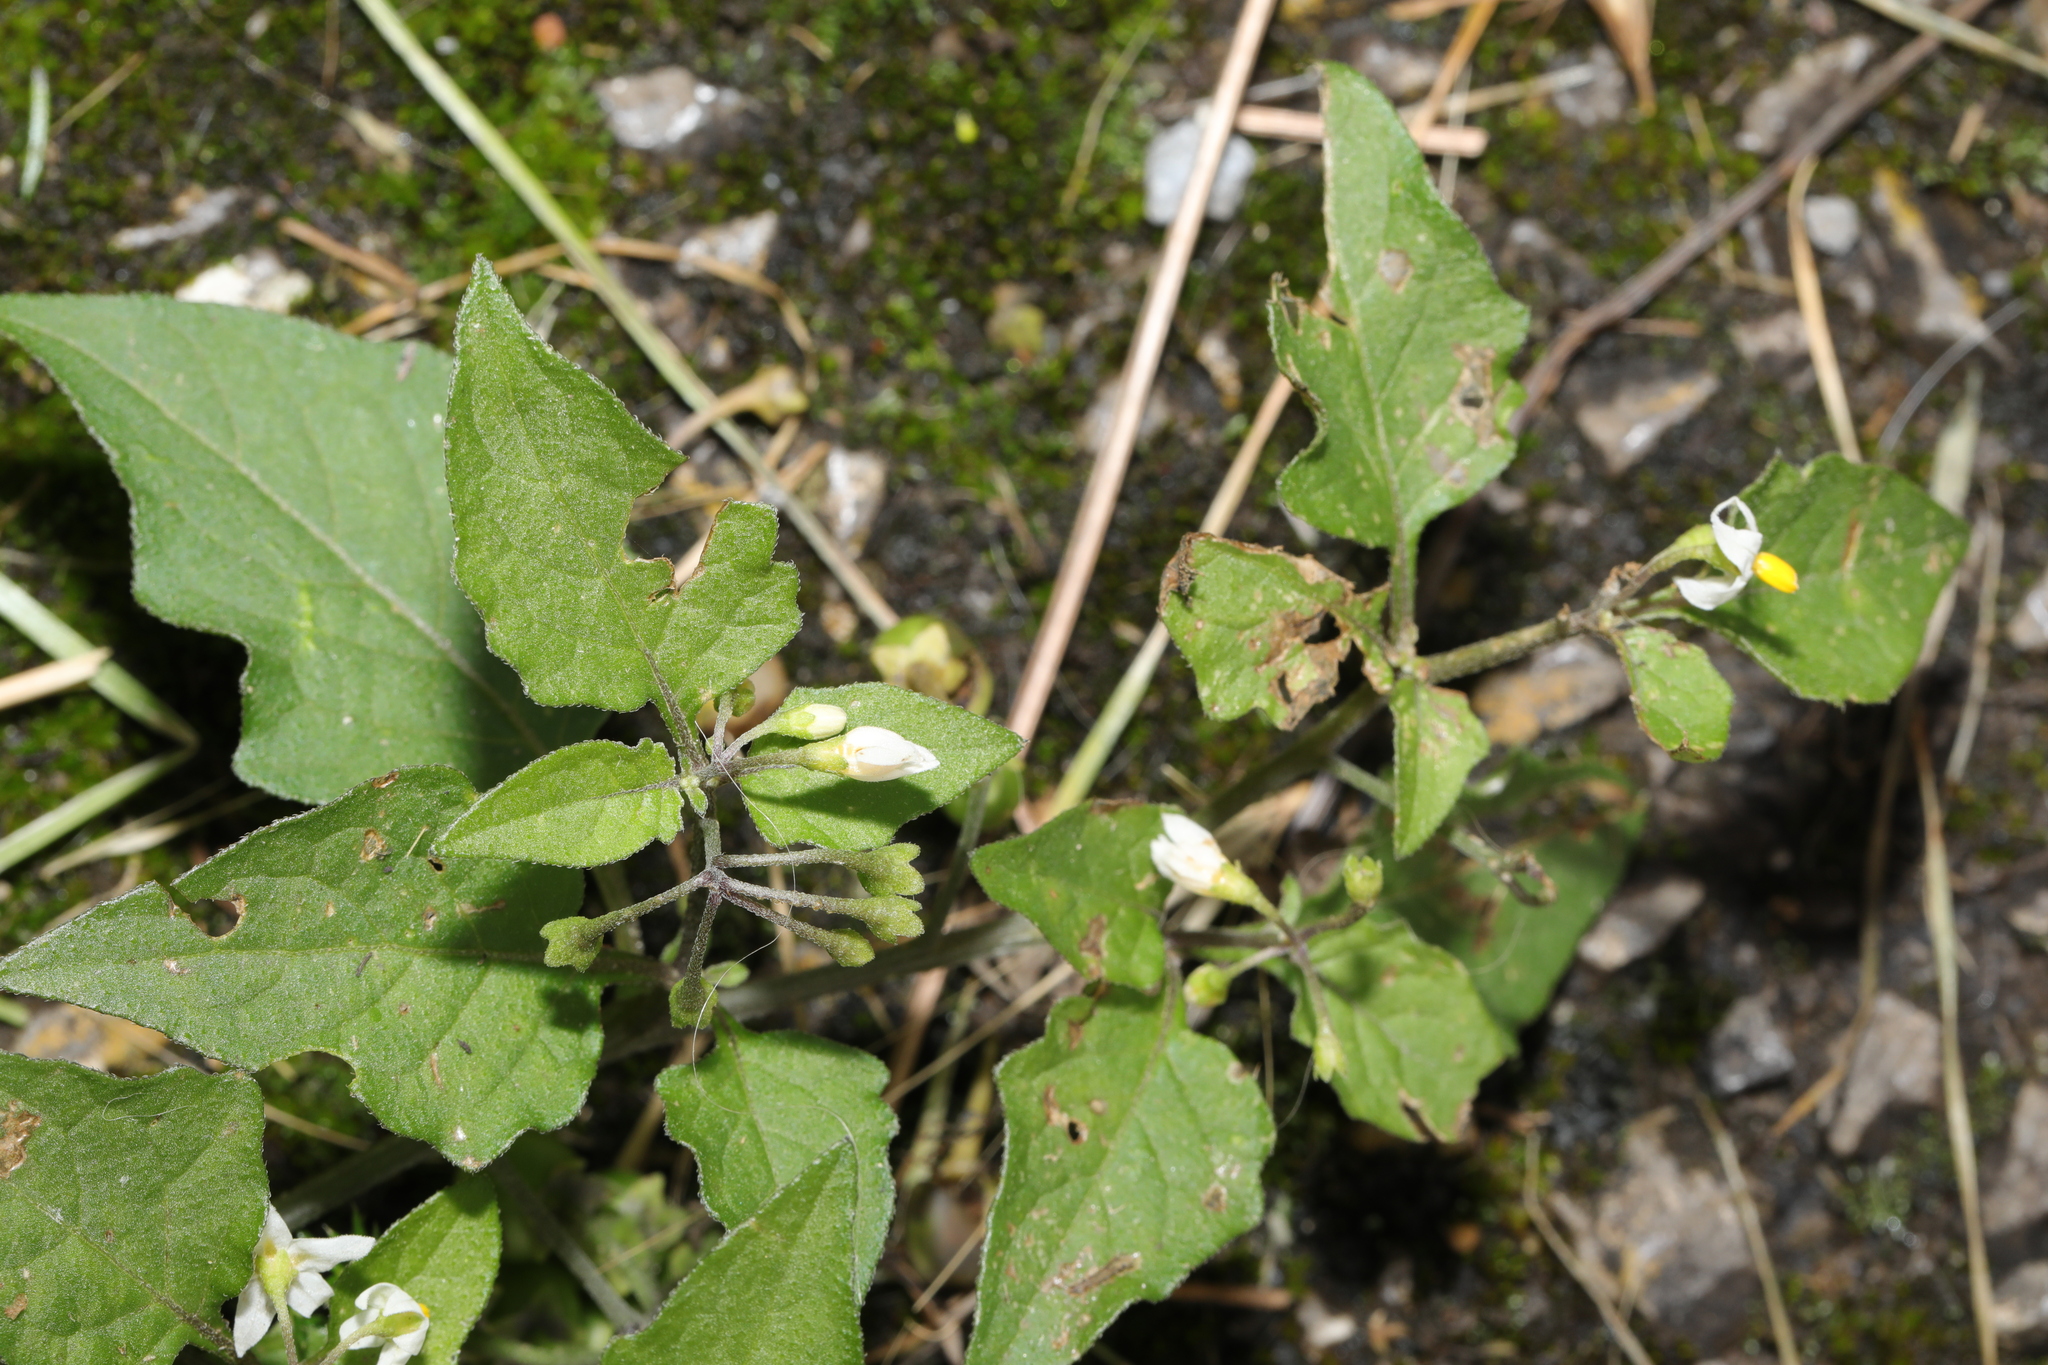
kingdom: Plantae
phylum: Tracheophyta
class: Magnoliopsida
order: Solanales
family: Solanaceae
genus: Solanum
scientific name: Solanum nigrum
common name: Black nightshade
